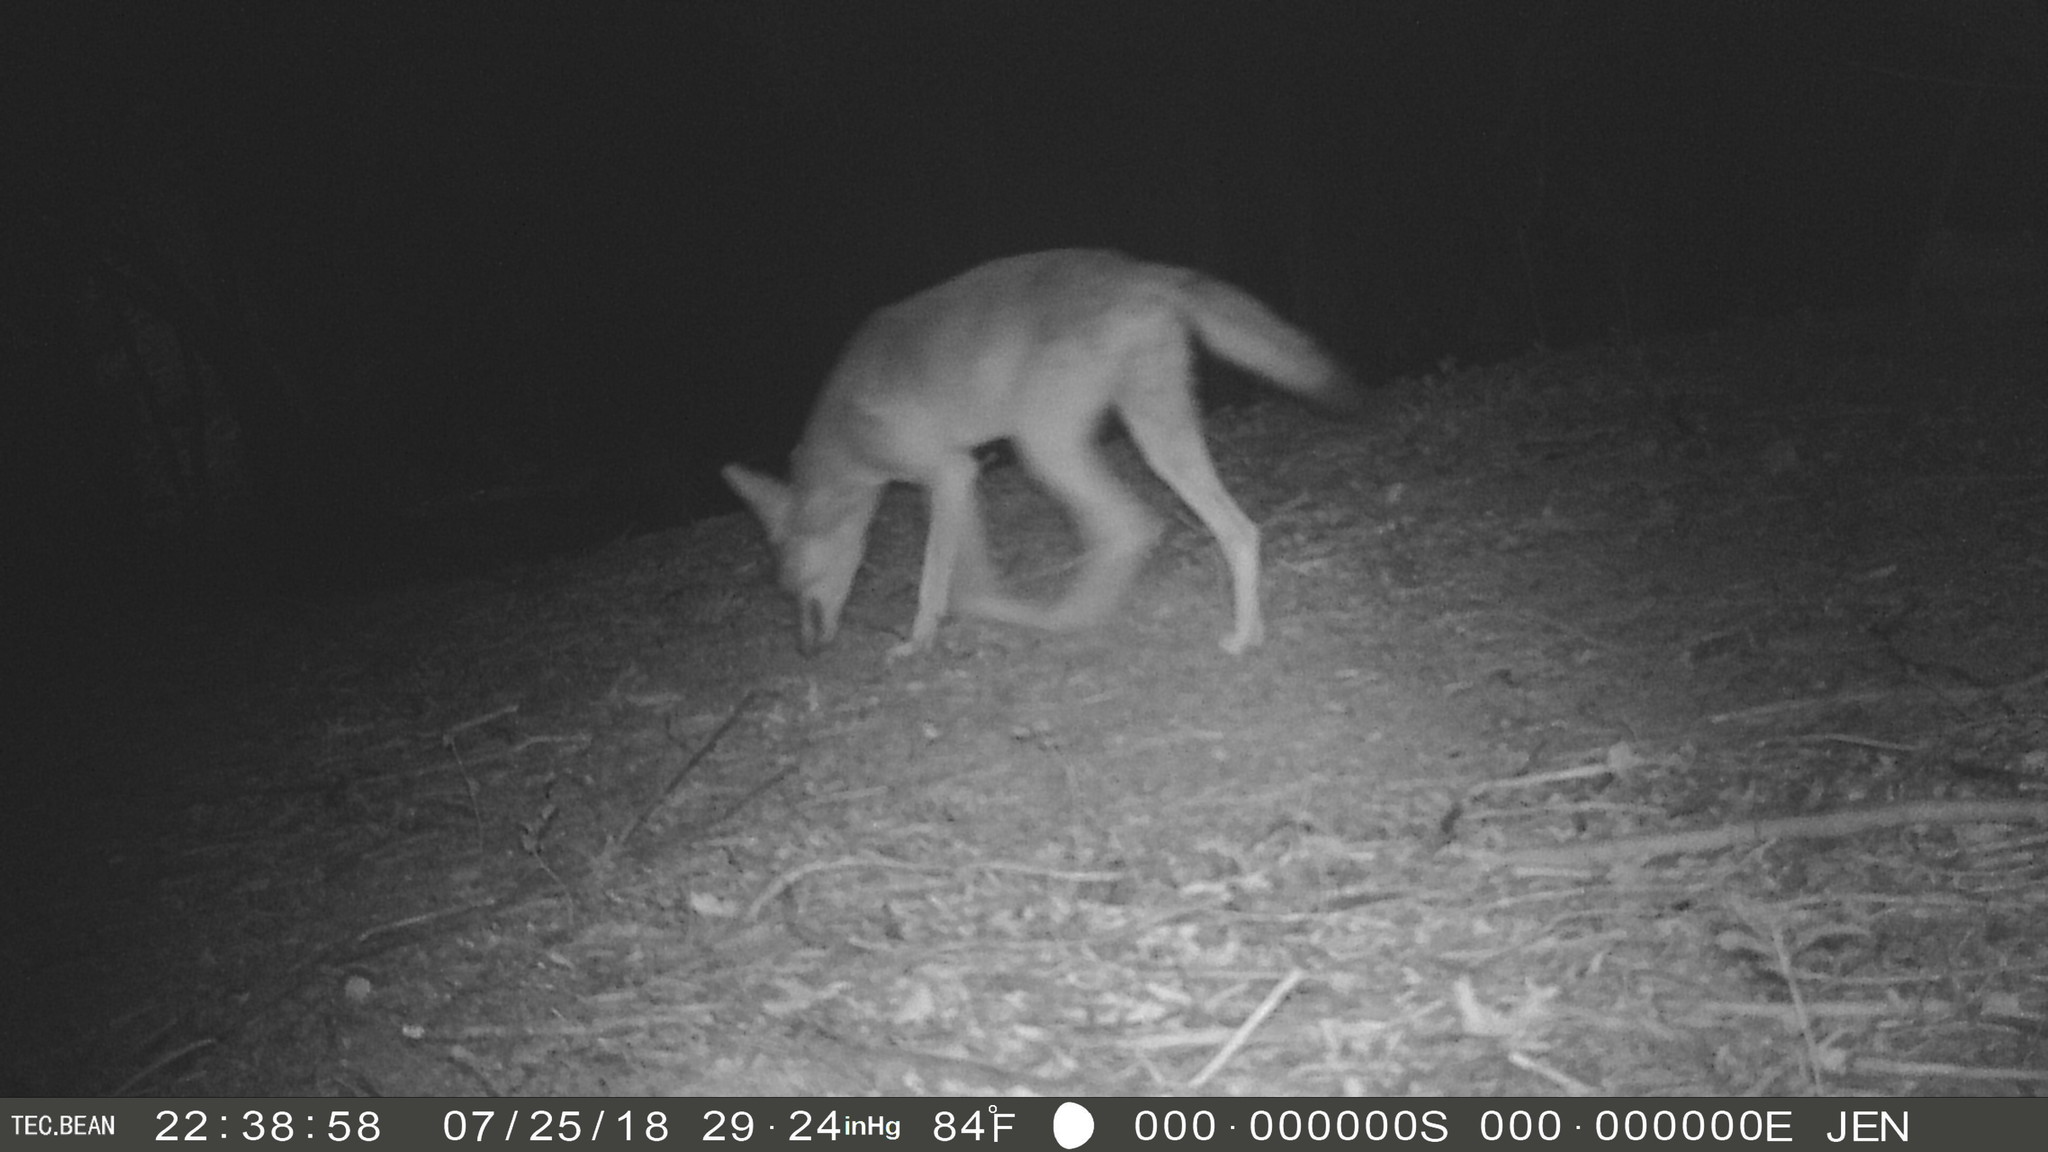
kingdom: Animalia
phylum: Chordata
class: Mammalia
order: Carnivora
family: Canidae
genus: Canis
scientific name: Canis latrans
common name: Coyote
